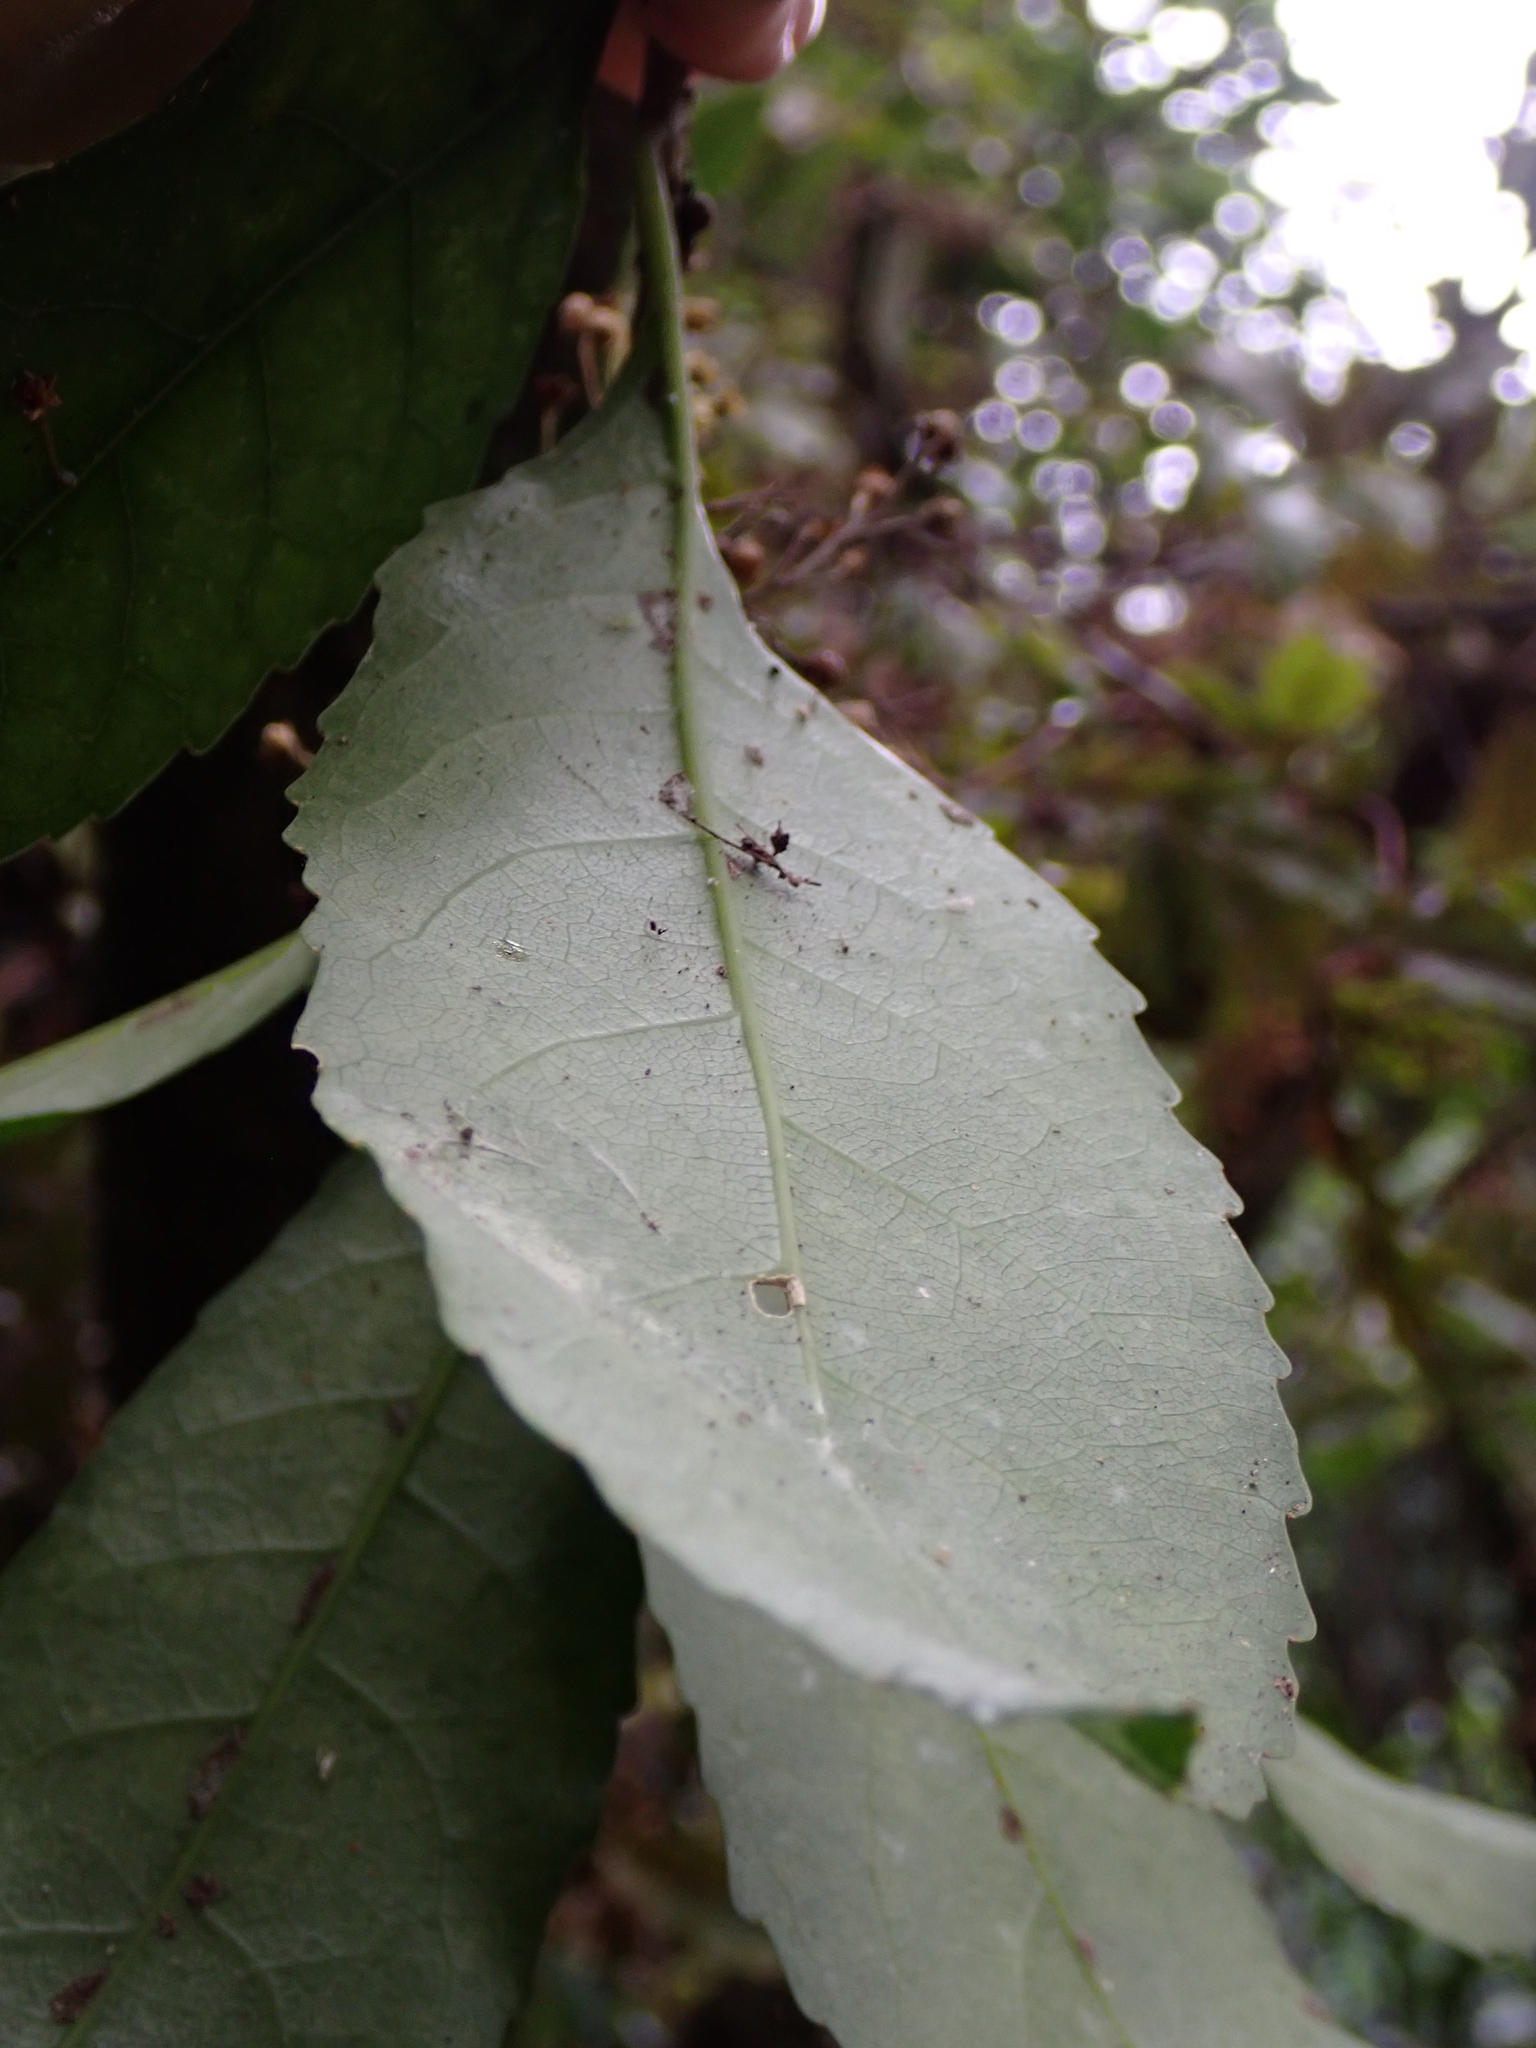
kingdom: Plantae
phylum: Tracheophyta
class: Magnoliopsida
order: Malpighiales
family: Violaceae
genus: Melicytus
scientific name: Melicytus ramiflorus
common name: Mahoe
